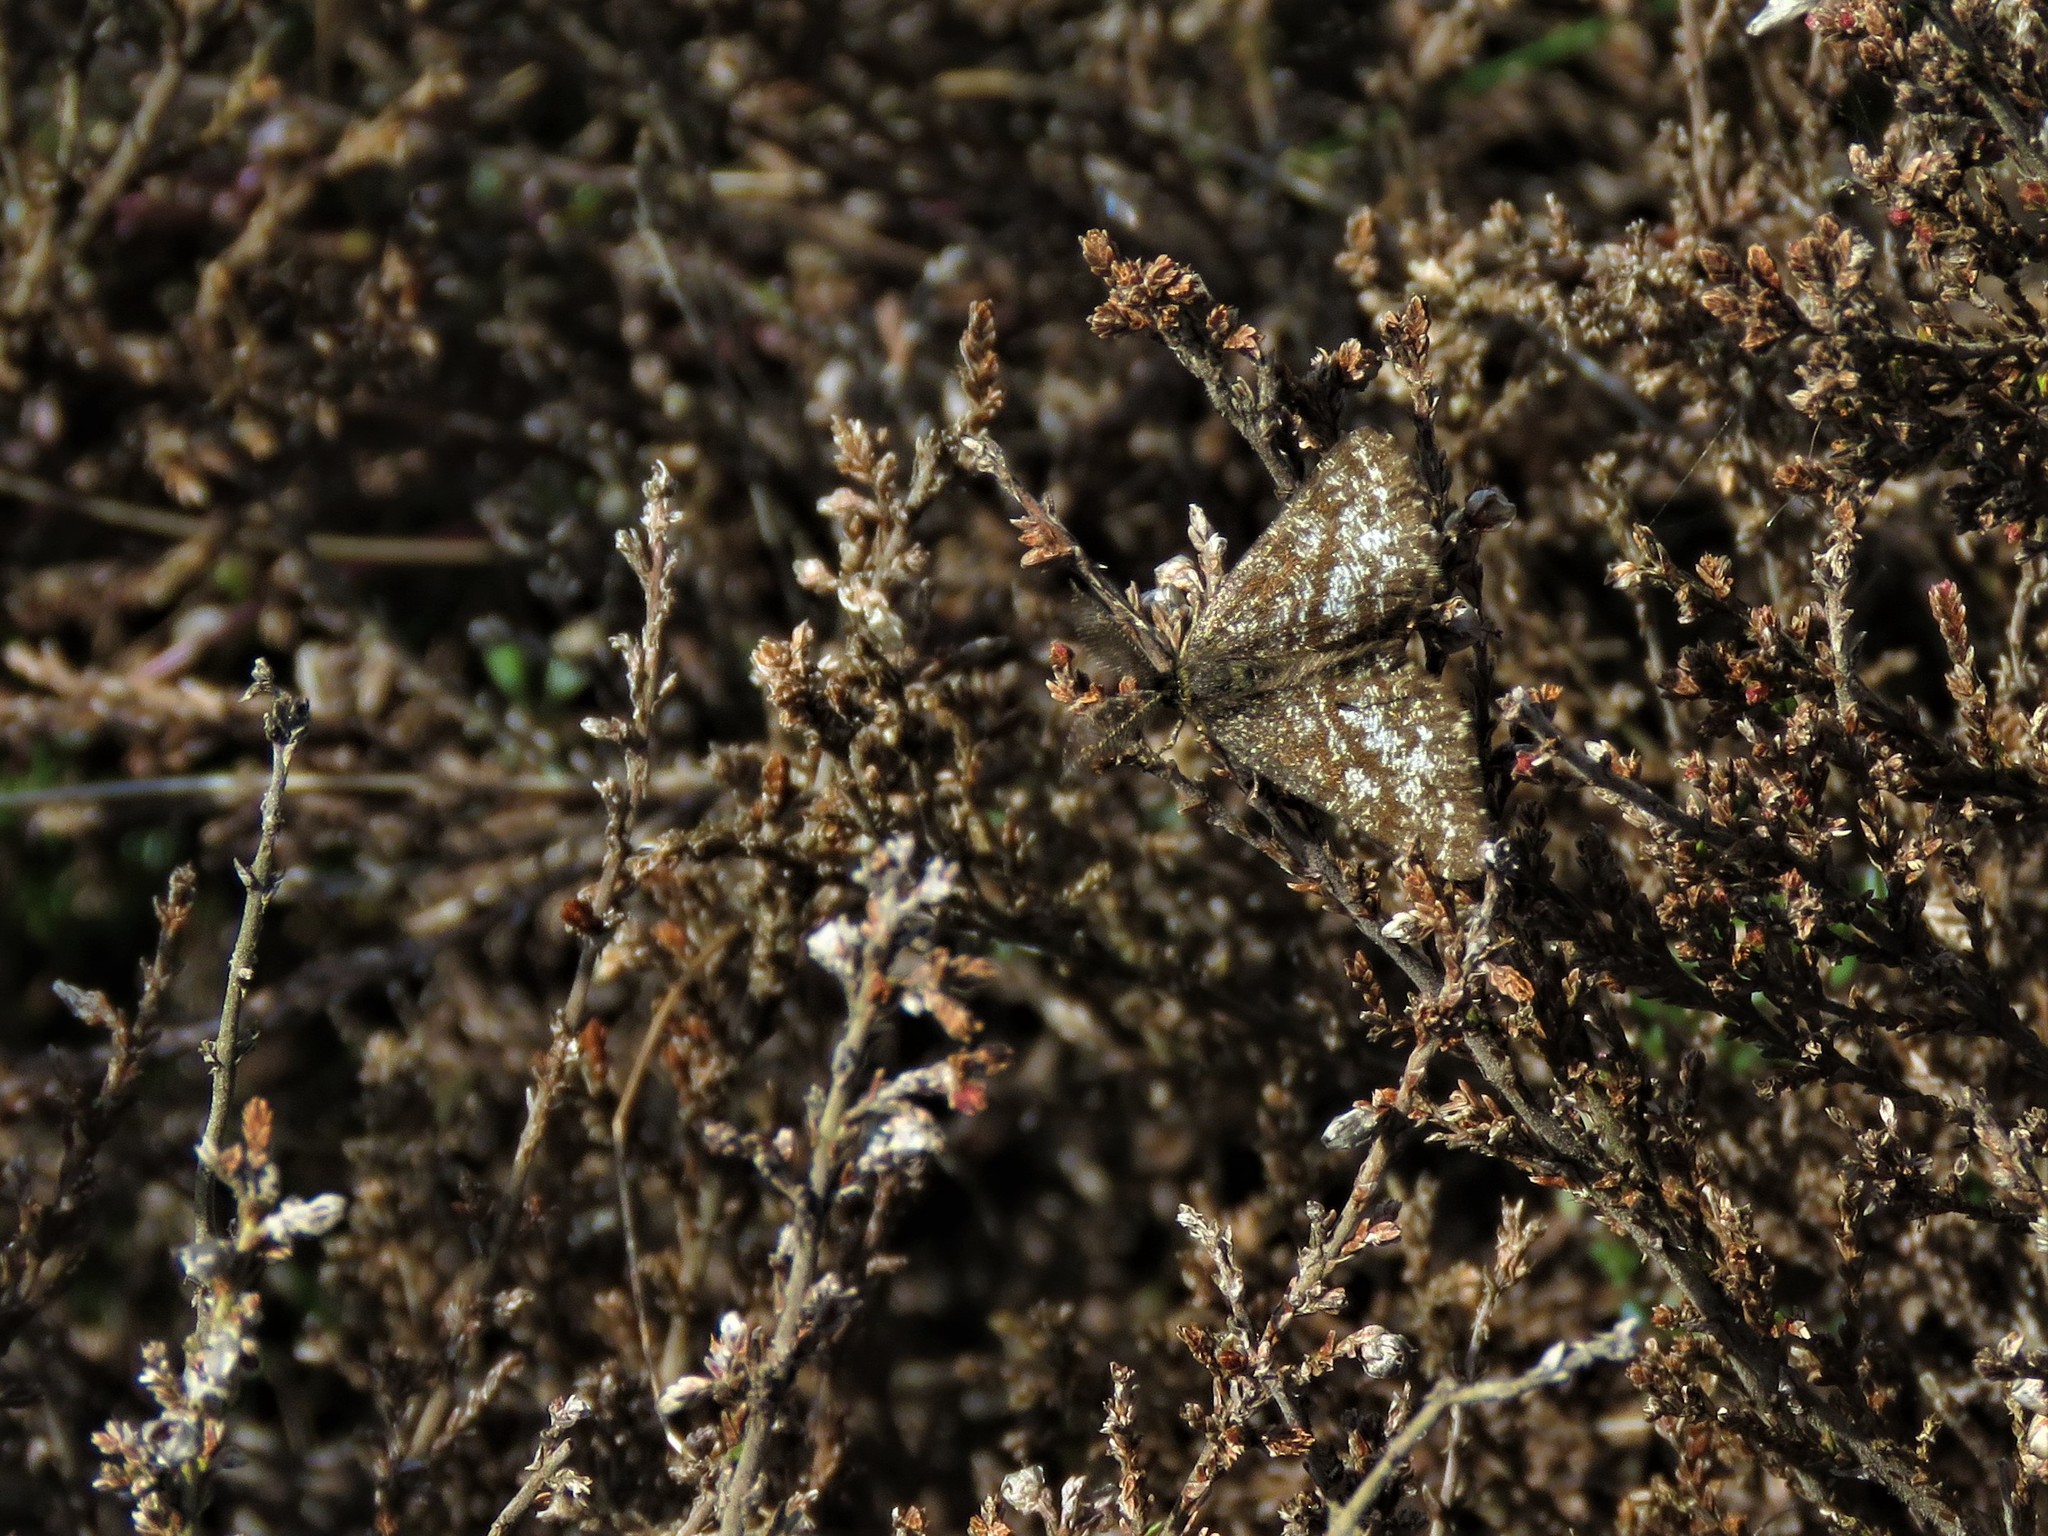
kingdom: Animalia
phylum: Arthropoda
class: Insecta
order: Lepidoptera
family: Geometridae
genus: Ematurga
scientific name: Ematurga atomaria
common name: Common heath
